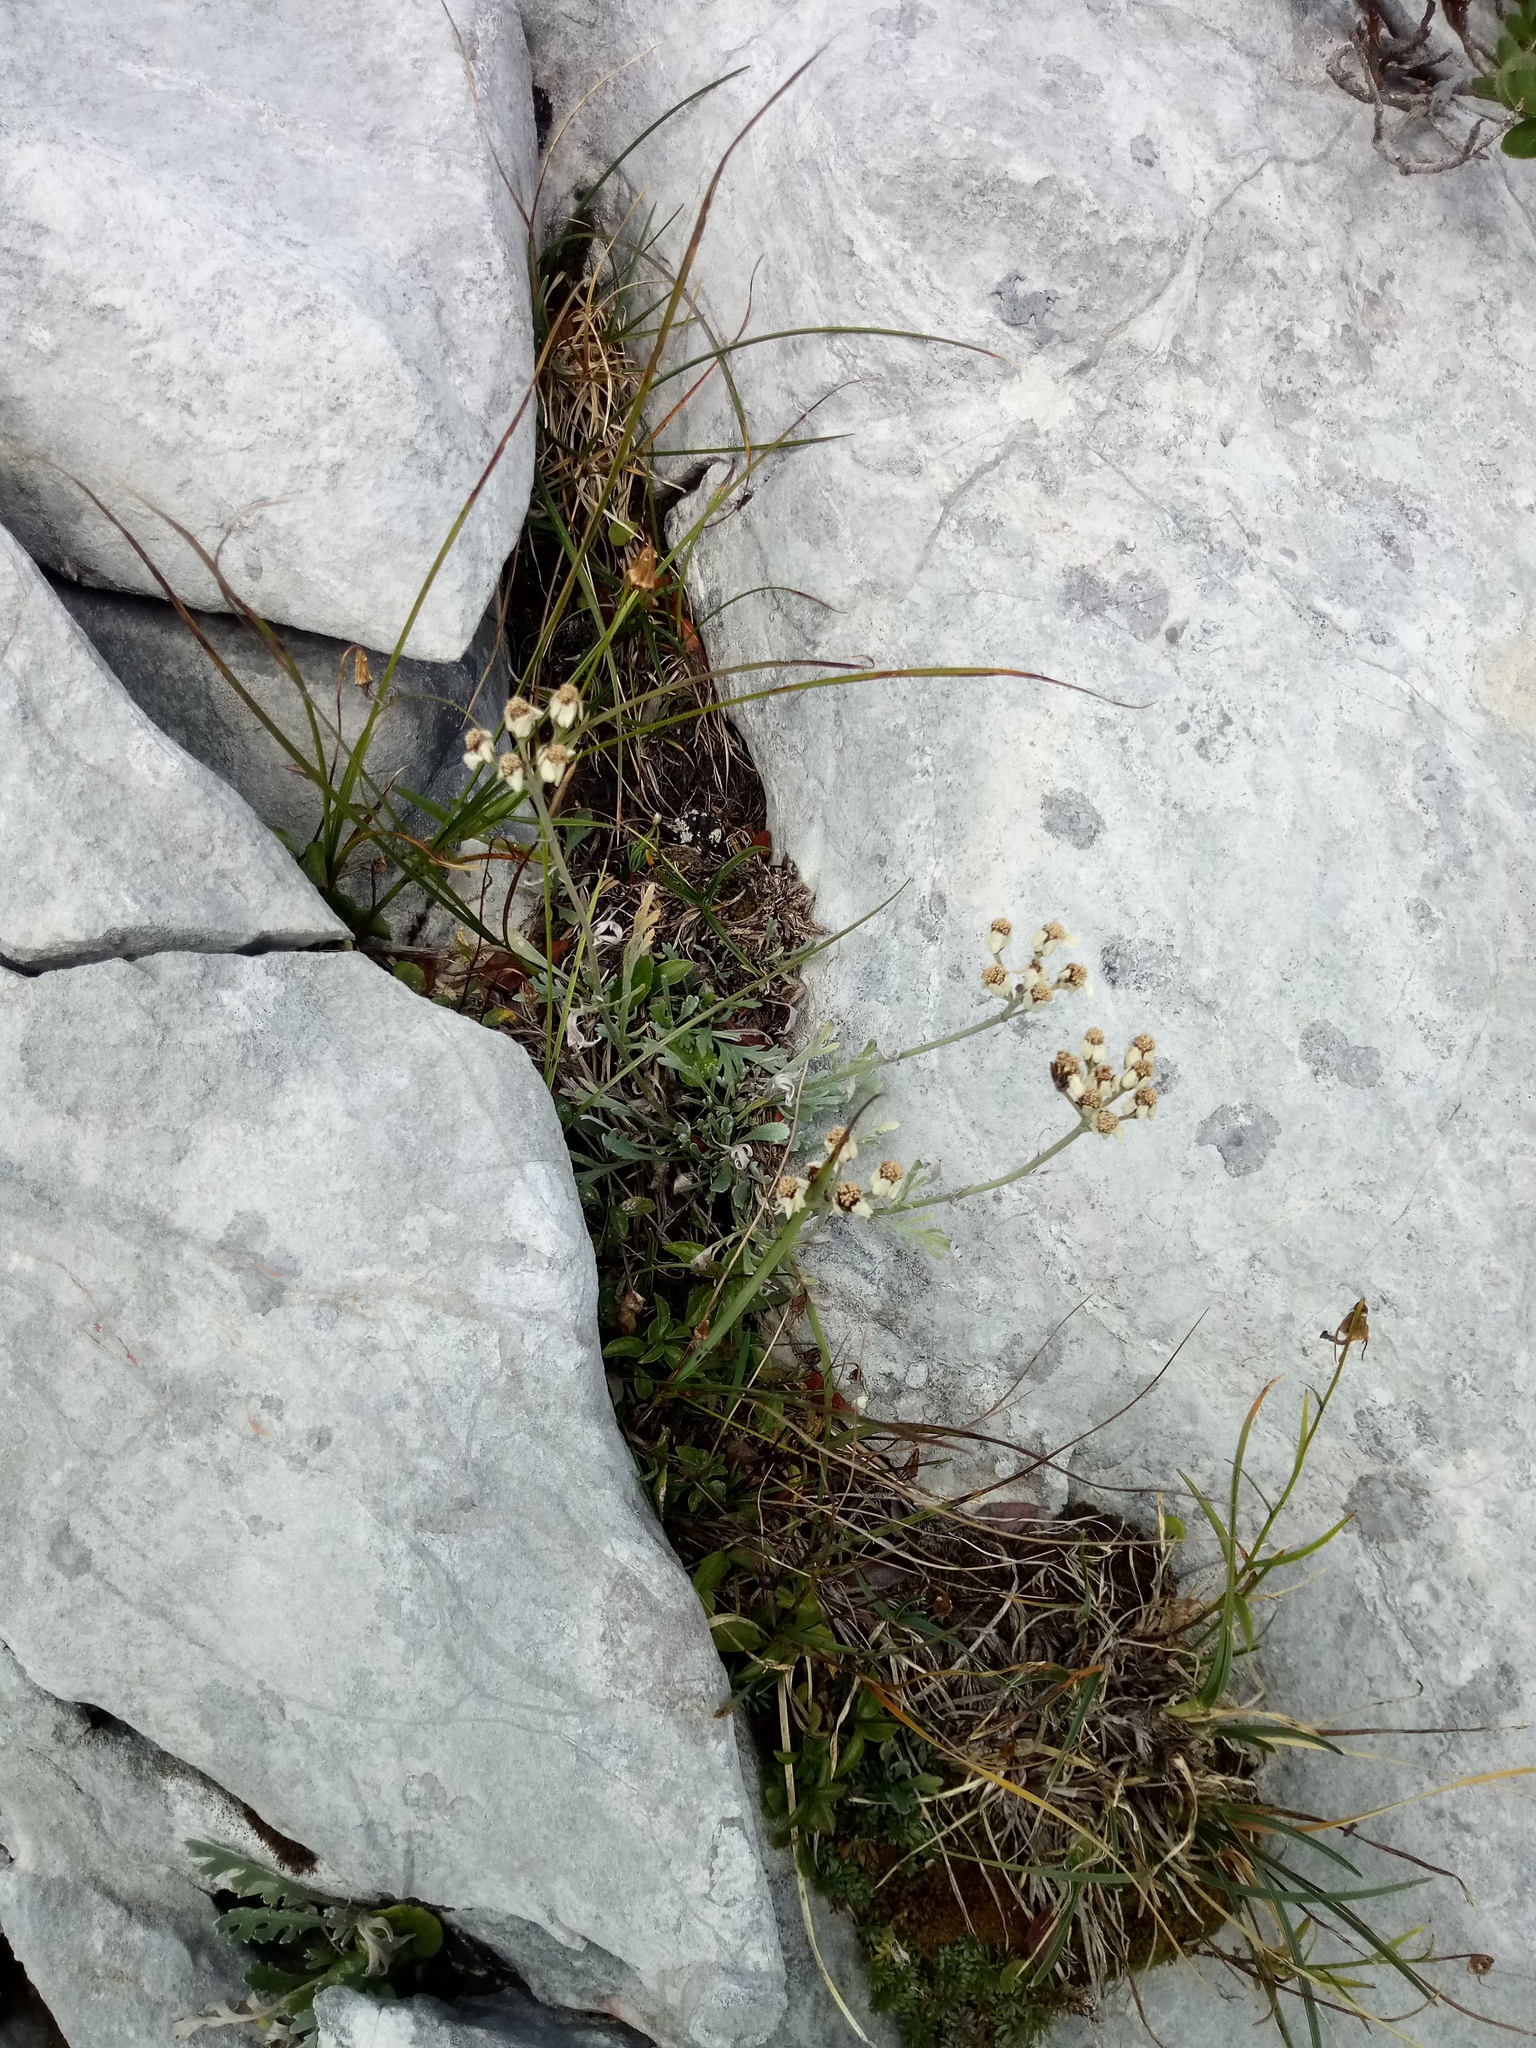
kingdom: Plantae
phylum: Tracheophyta
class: Magnoliopsida
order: Asterales
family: Asteraceae
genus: Achillea
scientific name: Achillea clavennae
